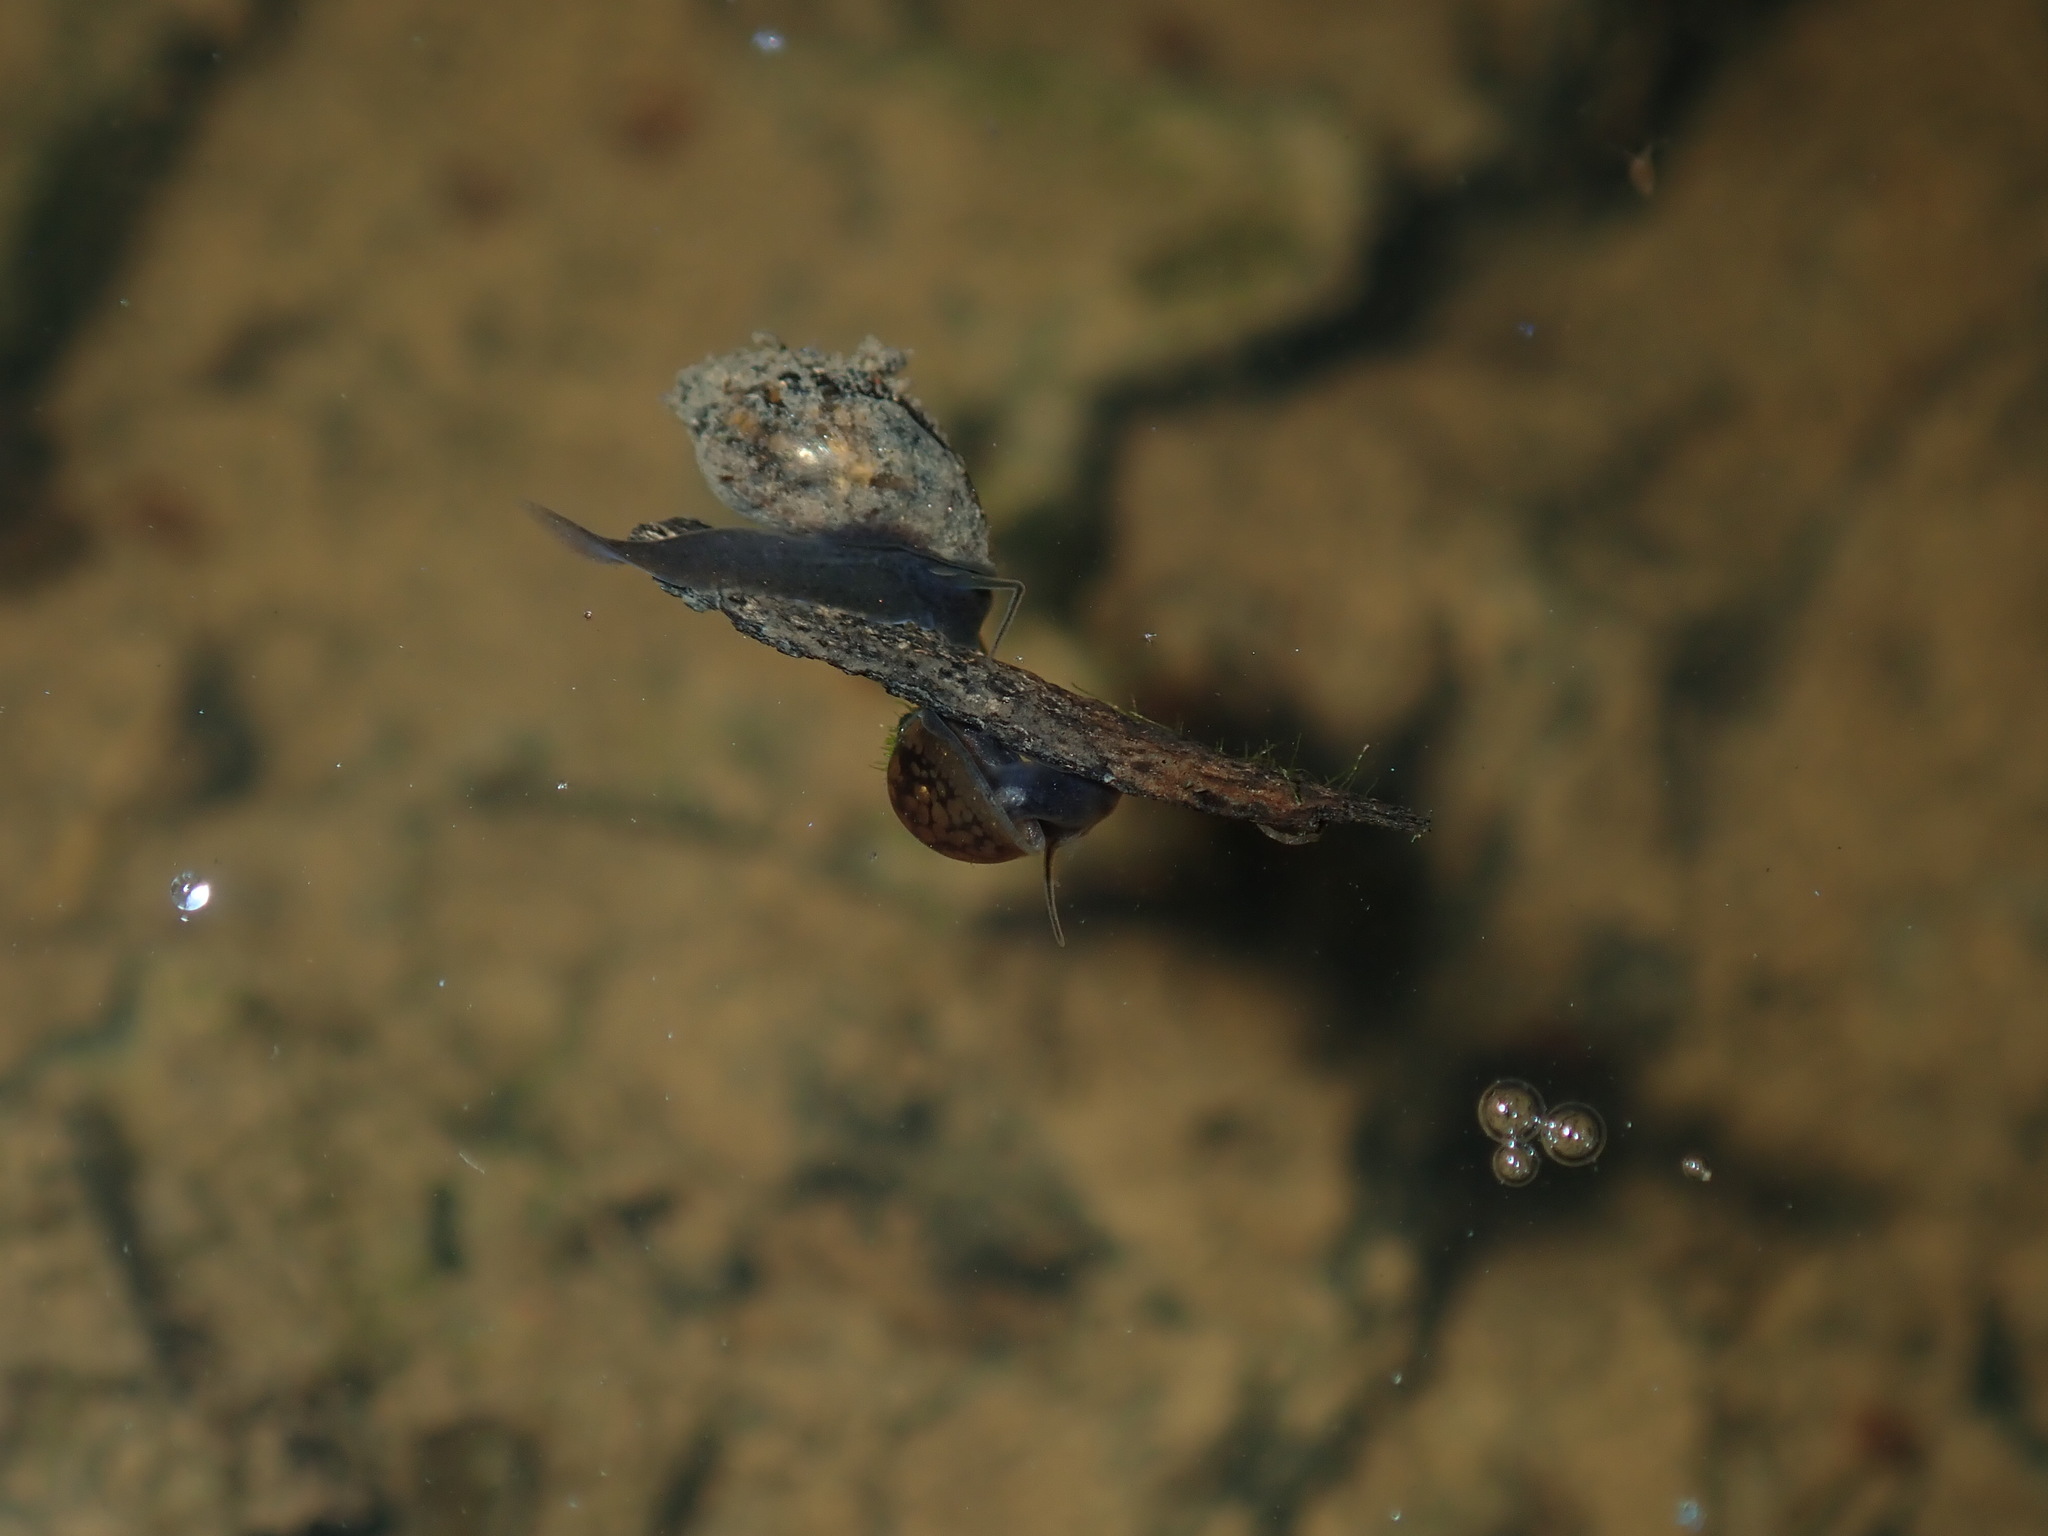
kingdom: Animalia
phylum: Mollusca
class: Gastropoda
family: Physidae
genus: Physella
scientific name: Physella acuta
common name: European physa
